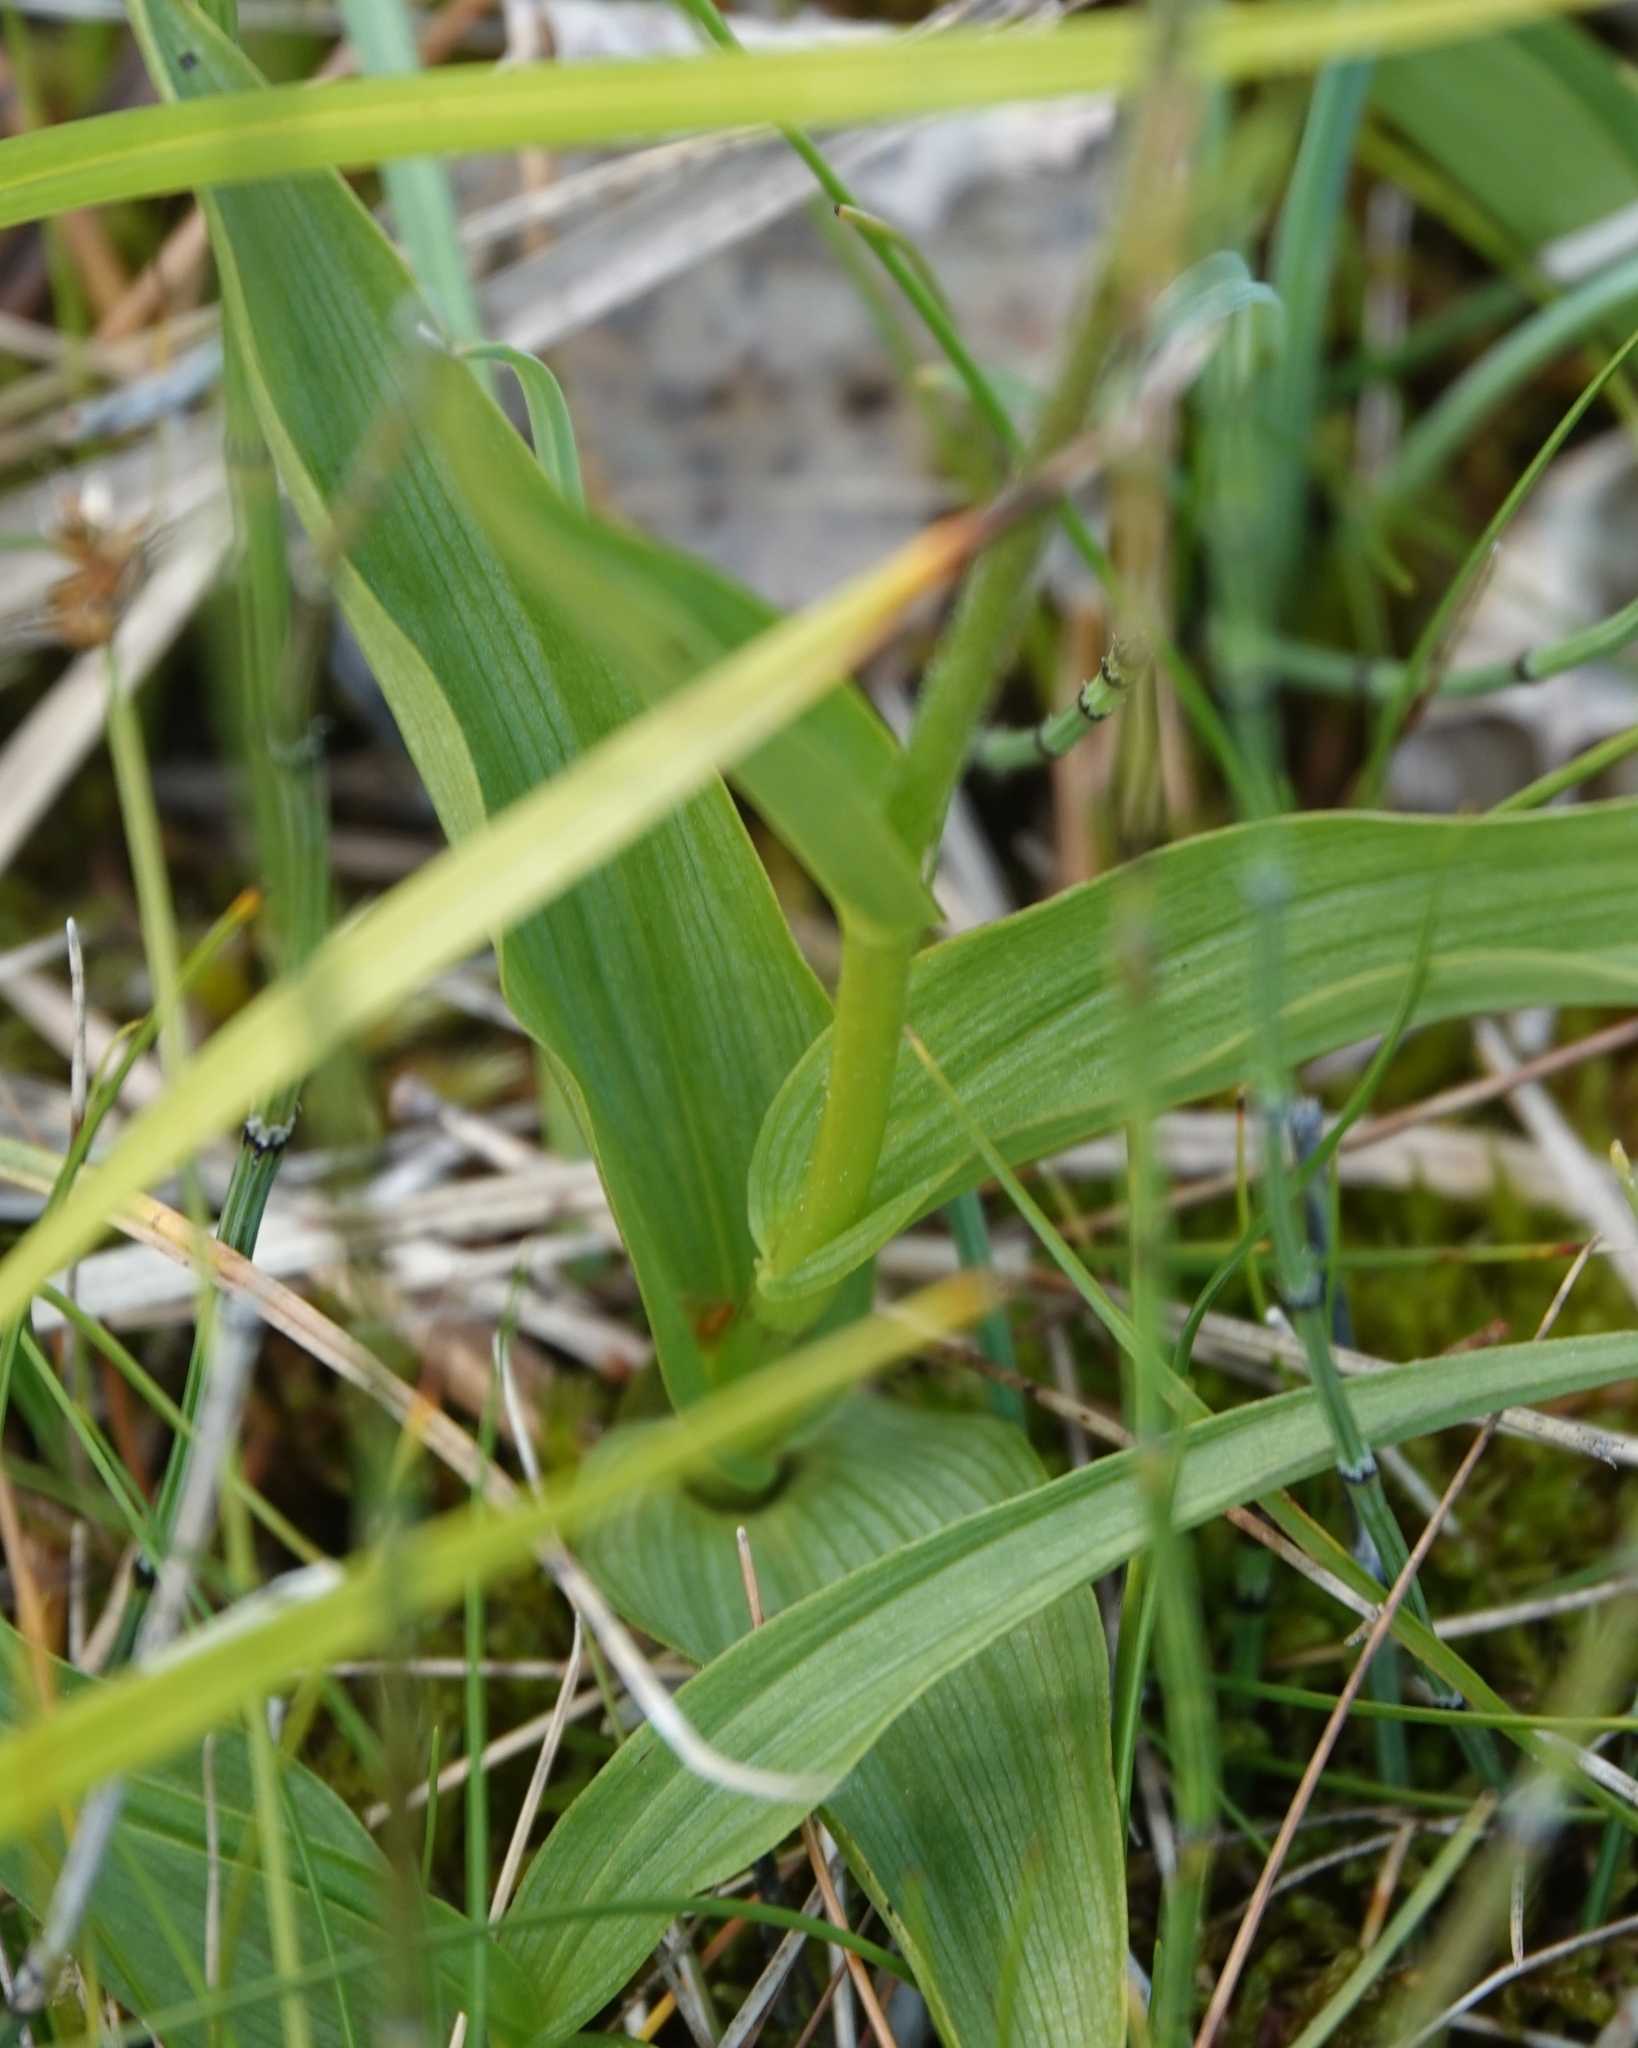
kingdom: Plantae
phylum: Tracheophyta
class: Liliopsida
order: Asparagales
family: Orchidaceae
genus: Epipactis
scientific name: Epipactis palustris
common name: Marsh helleborine
